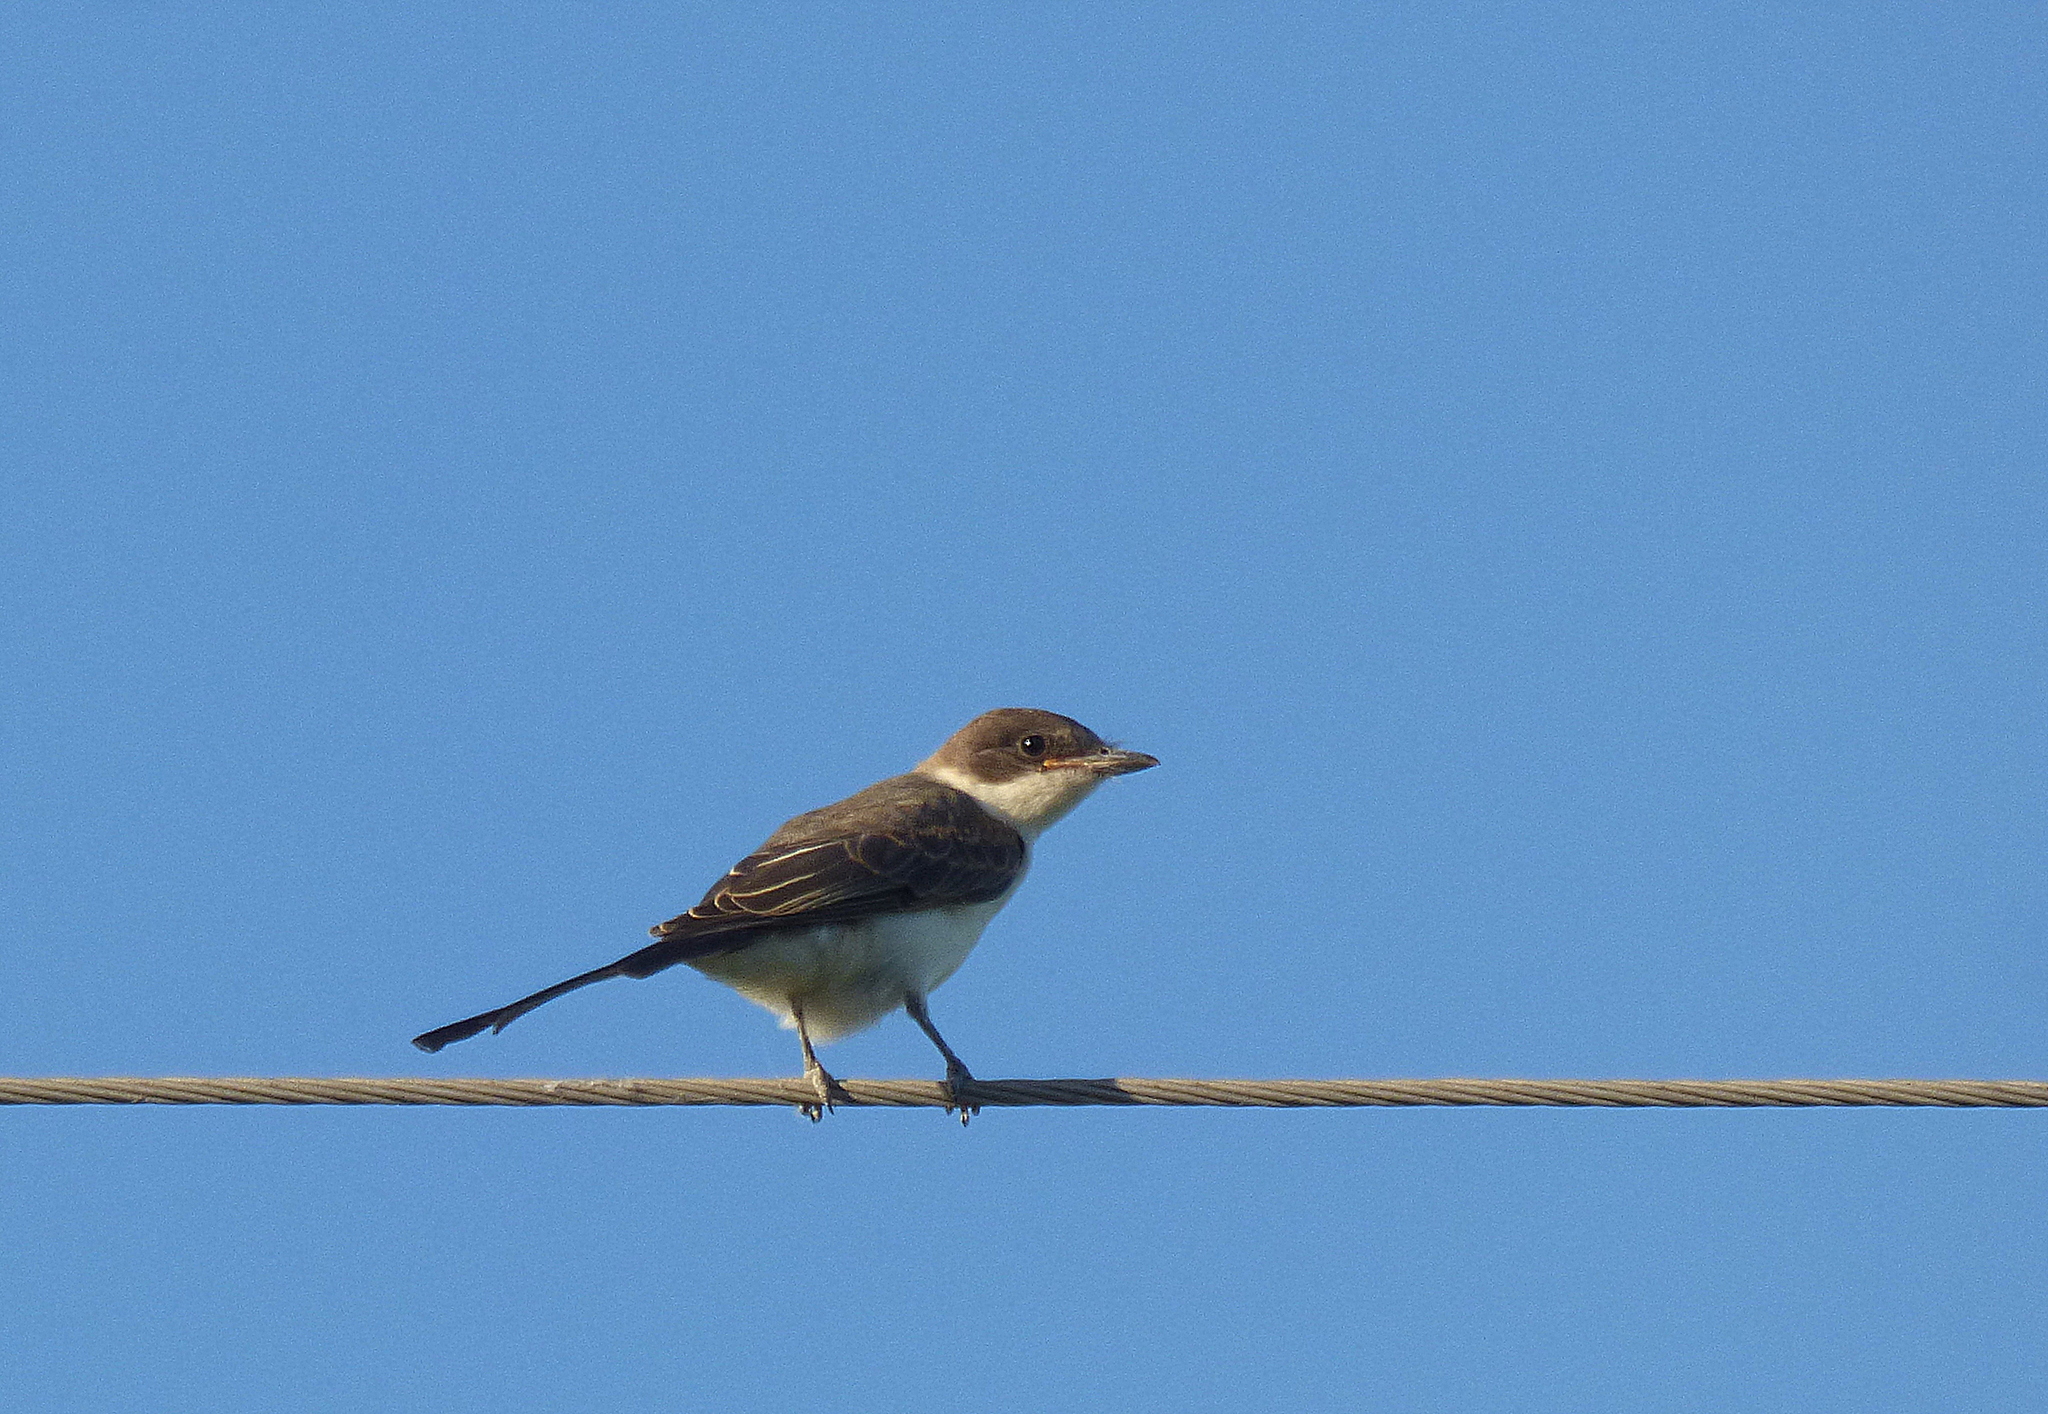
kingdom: Animalia
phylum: Chordata
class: Aves
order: Passeriformes
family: Tyrannidae
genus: Tyrannus
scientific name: Tyrannus savana
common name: Fork-tailed flycatcher
